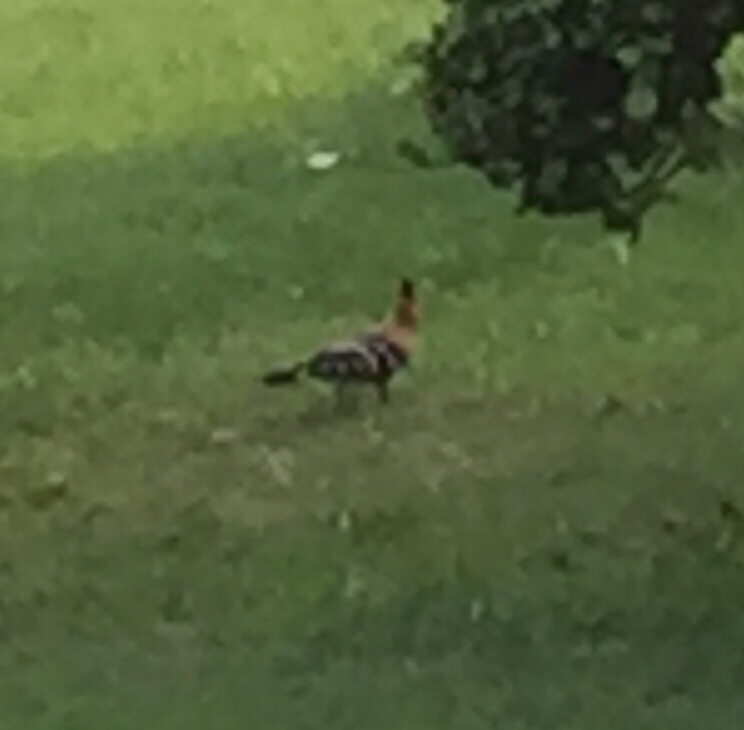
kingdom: Animalia
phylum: Chordata
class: Aves
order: Bucerotiformes
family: Upupidae
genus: Upupa
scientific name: Upupa epops
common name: Eurasian hoopoe
